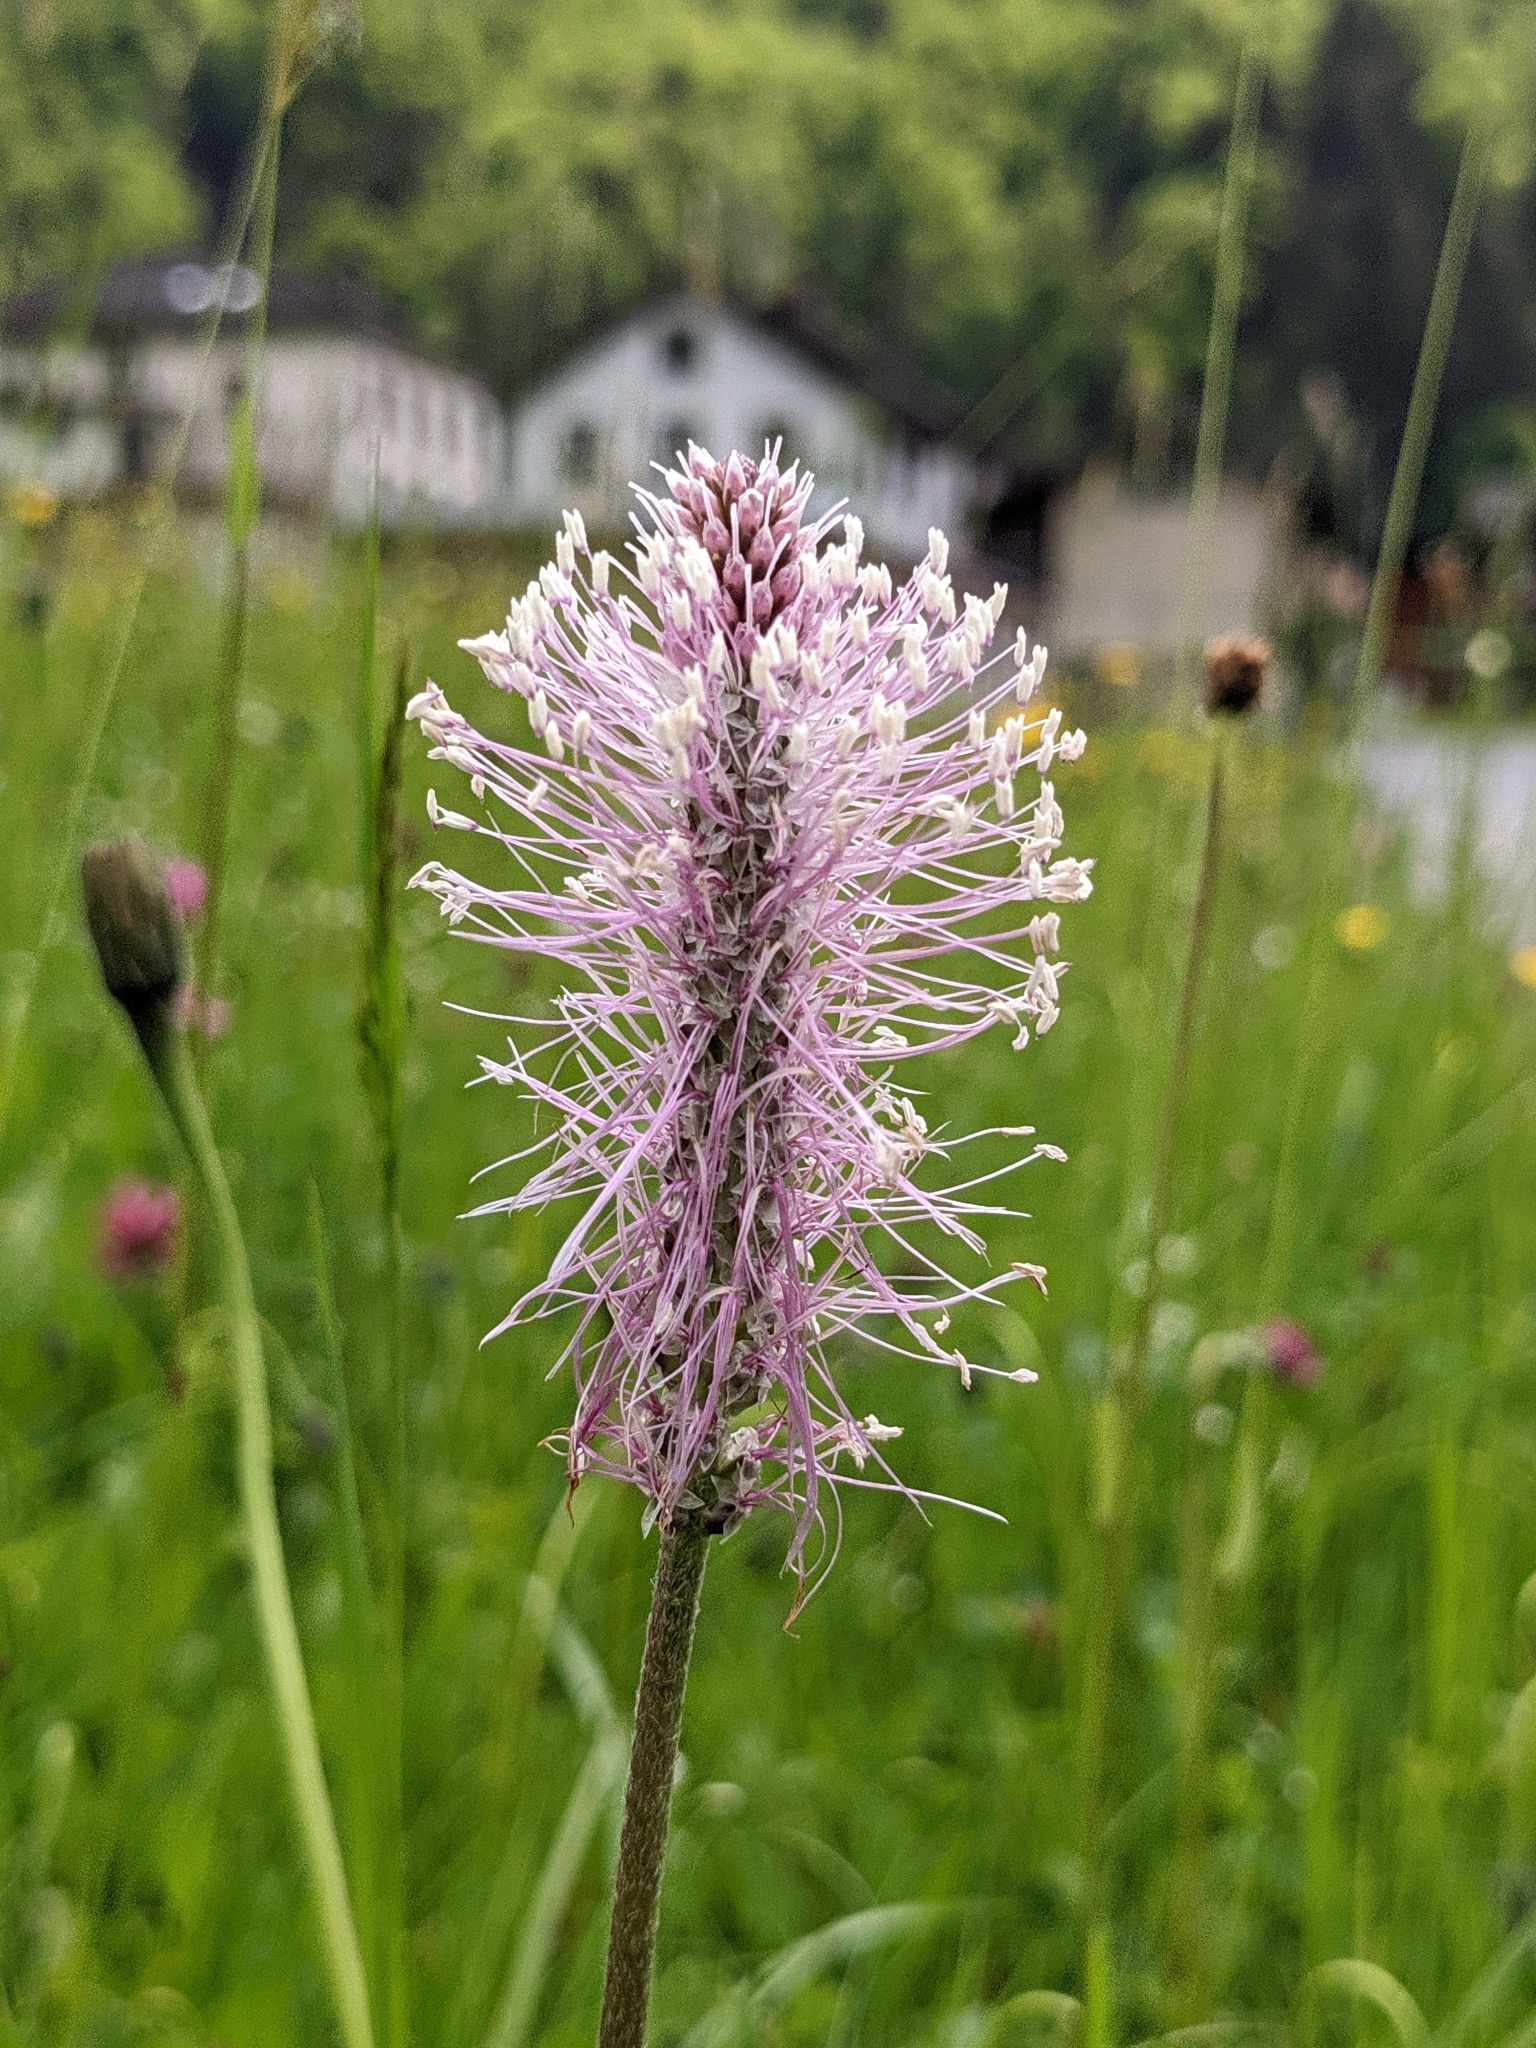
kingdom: Plantae
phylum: Tracheophyta
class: Magnoliopsida
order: Lamiales
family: Plantaginaceae
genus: Plantago
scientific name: Plantago media
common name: Hoary plantain
